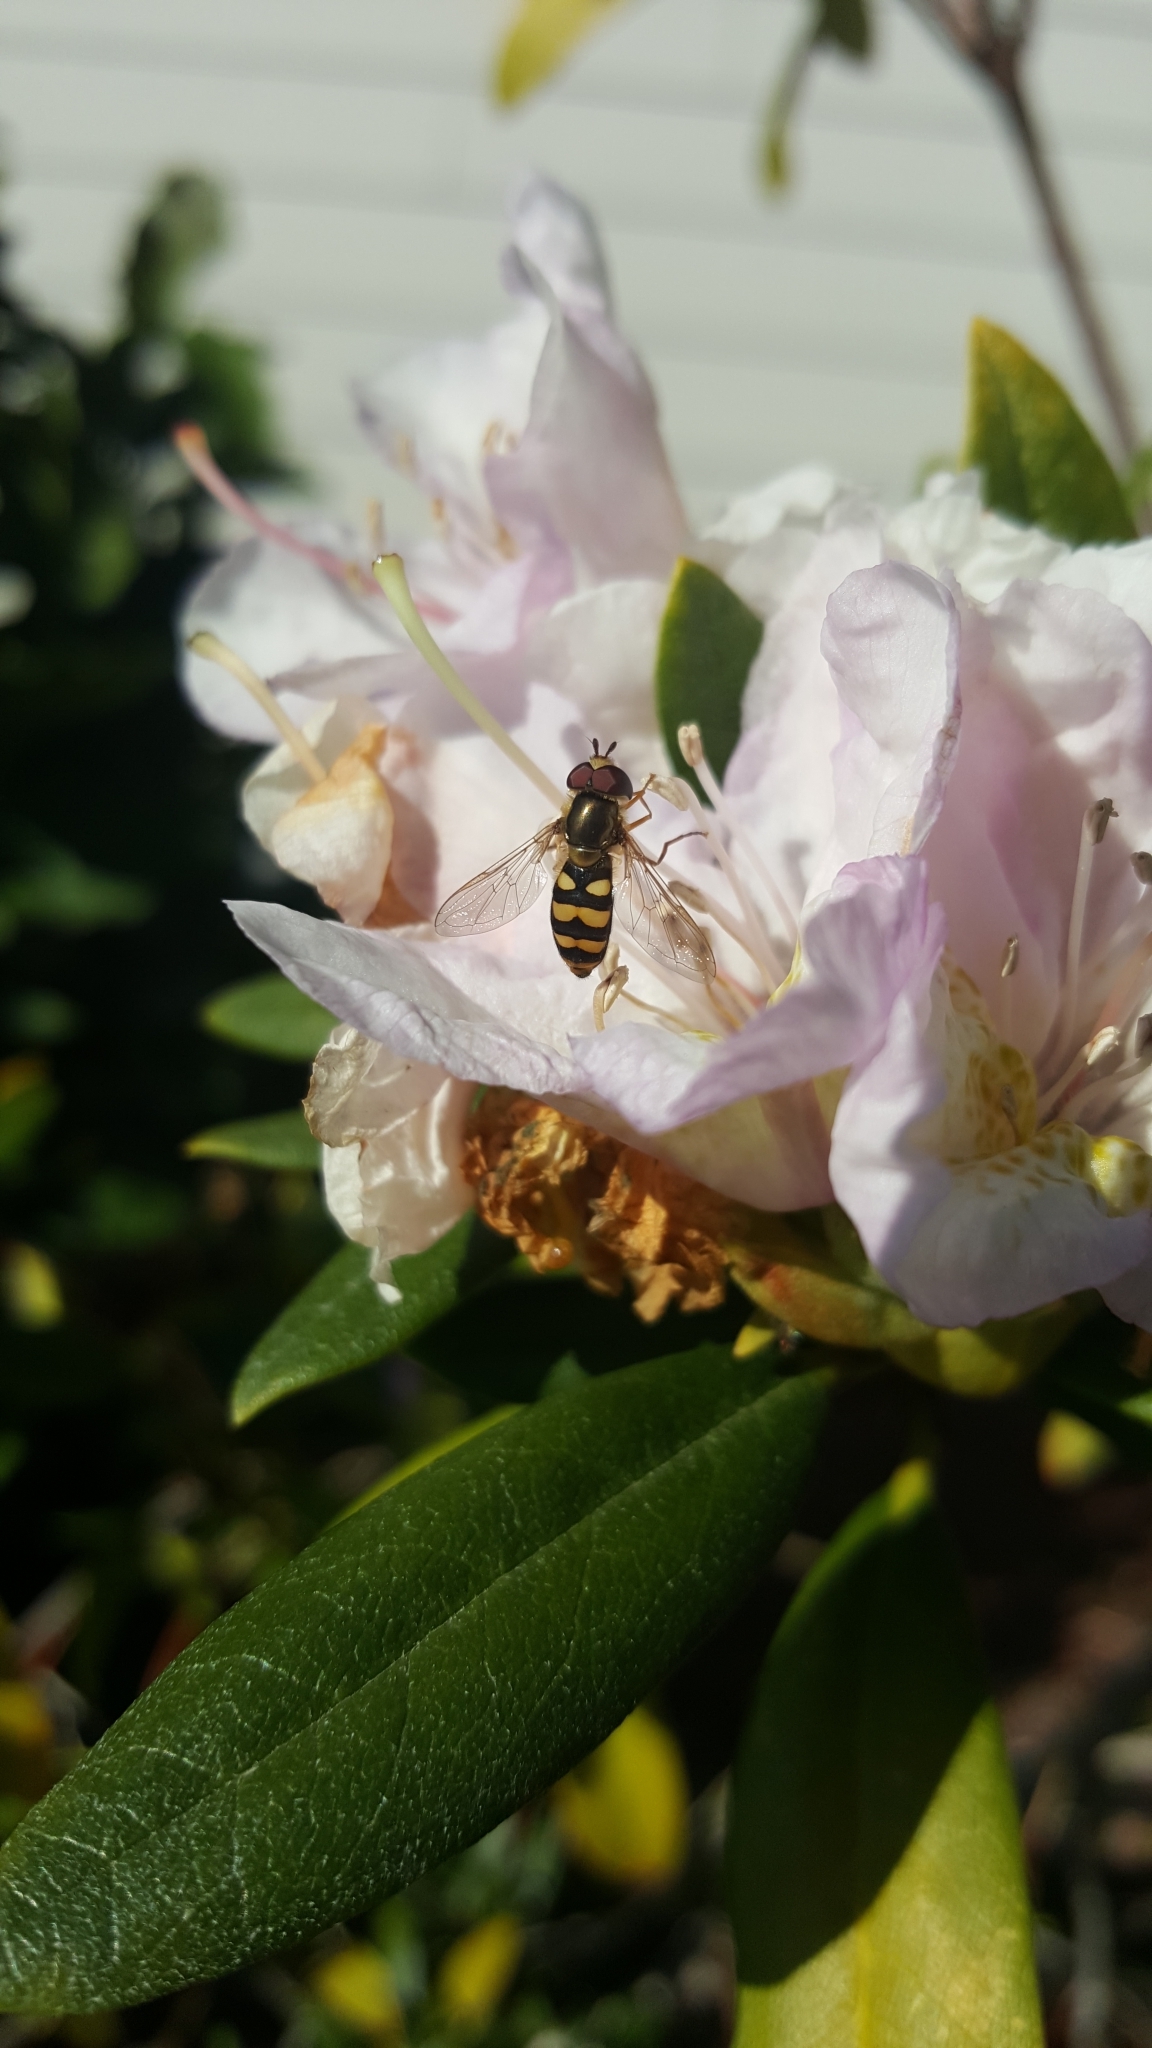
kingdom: Animalia
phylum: Arthropoda
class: Insecta
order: Diptera
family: Syrphidae
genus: Eupeodes
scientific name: Eupeodes fumipennis
